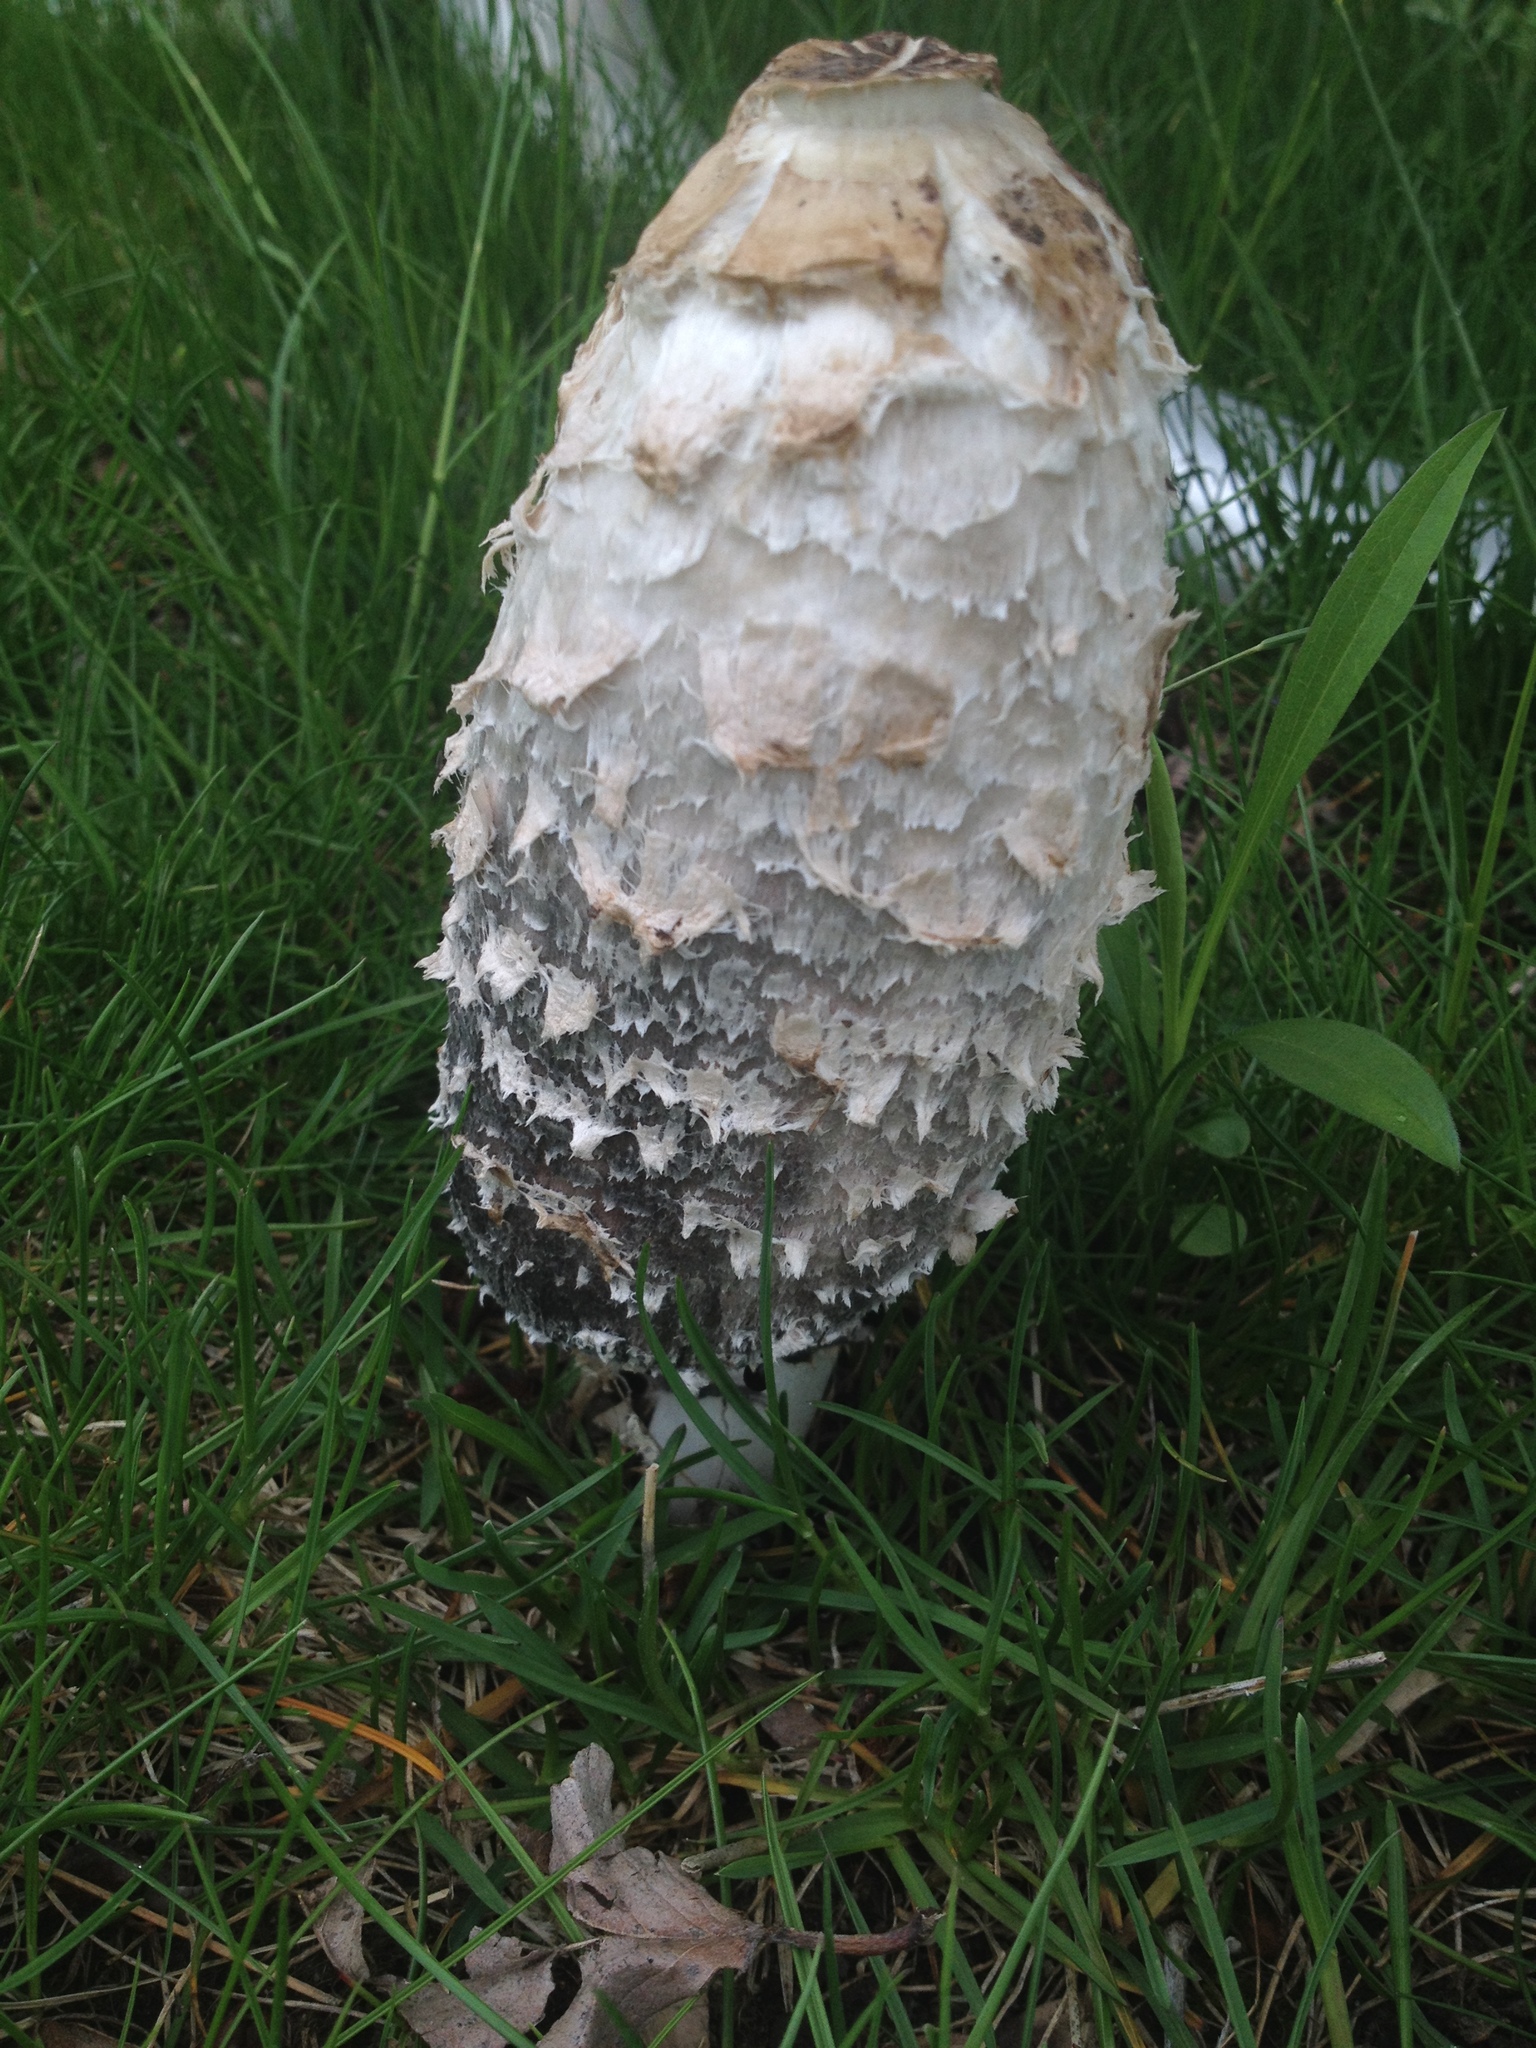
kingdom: Fungi
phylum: Basidiomycota
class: Agaricomycetes
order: Agaricales
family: Agaricaceae
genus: Coprinus
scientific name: Coprinus comatus
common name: Lawyer's wig
